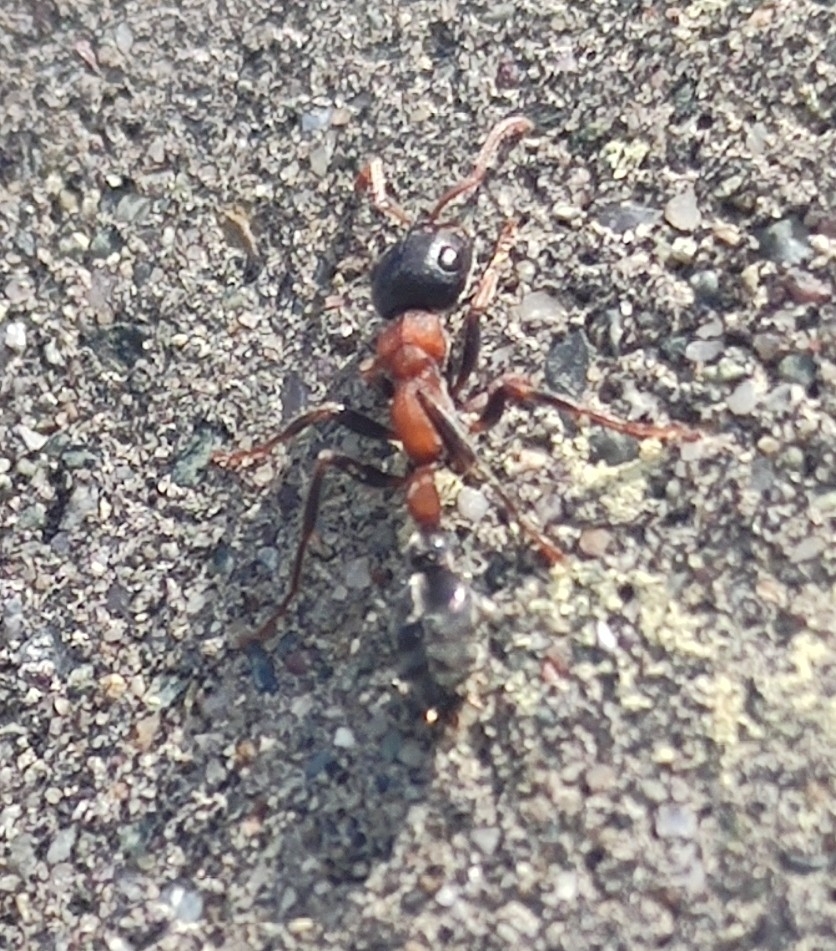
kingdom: Animalia
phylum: Arthropoda
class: Insecta
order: Hymenoptera
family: Formicidae
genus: Tetraponera
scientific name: Tetraponera rufonigra
